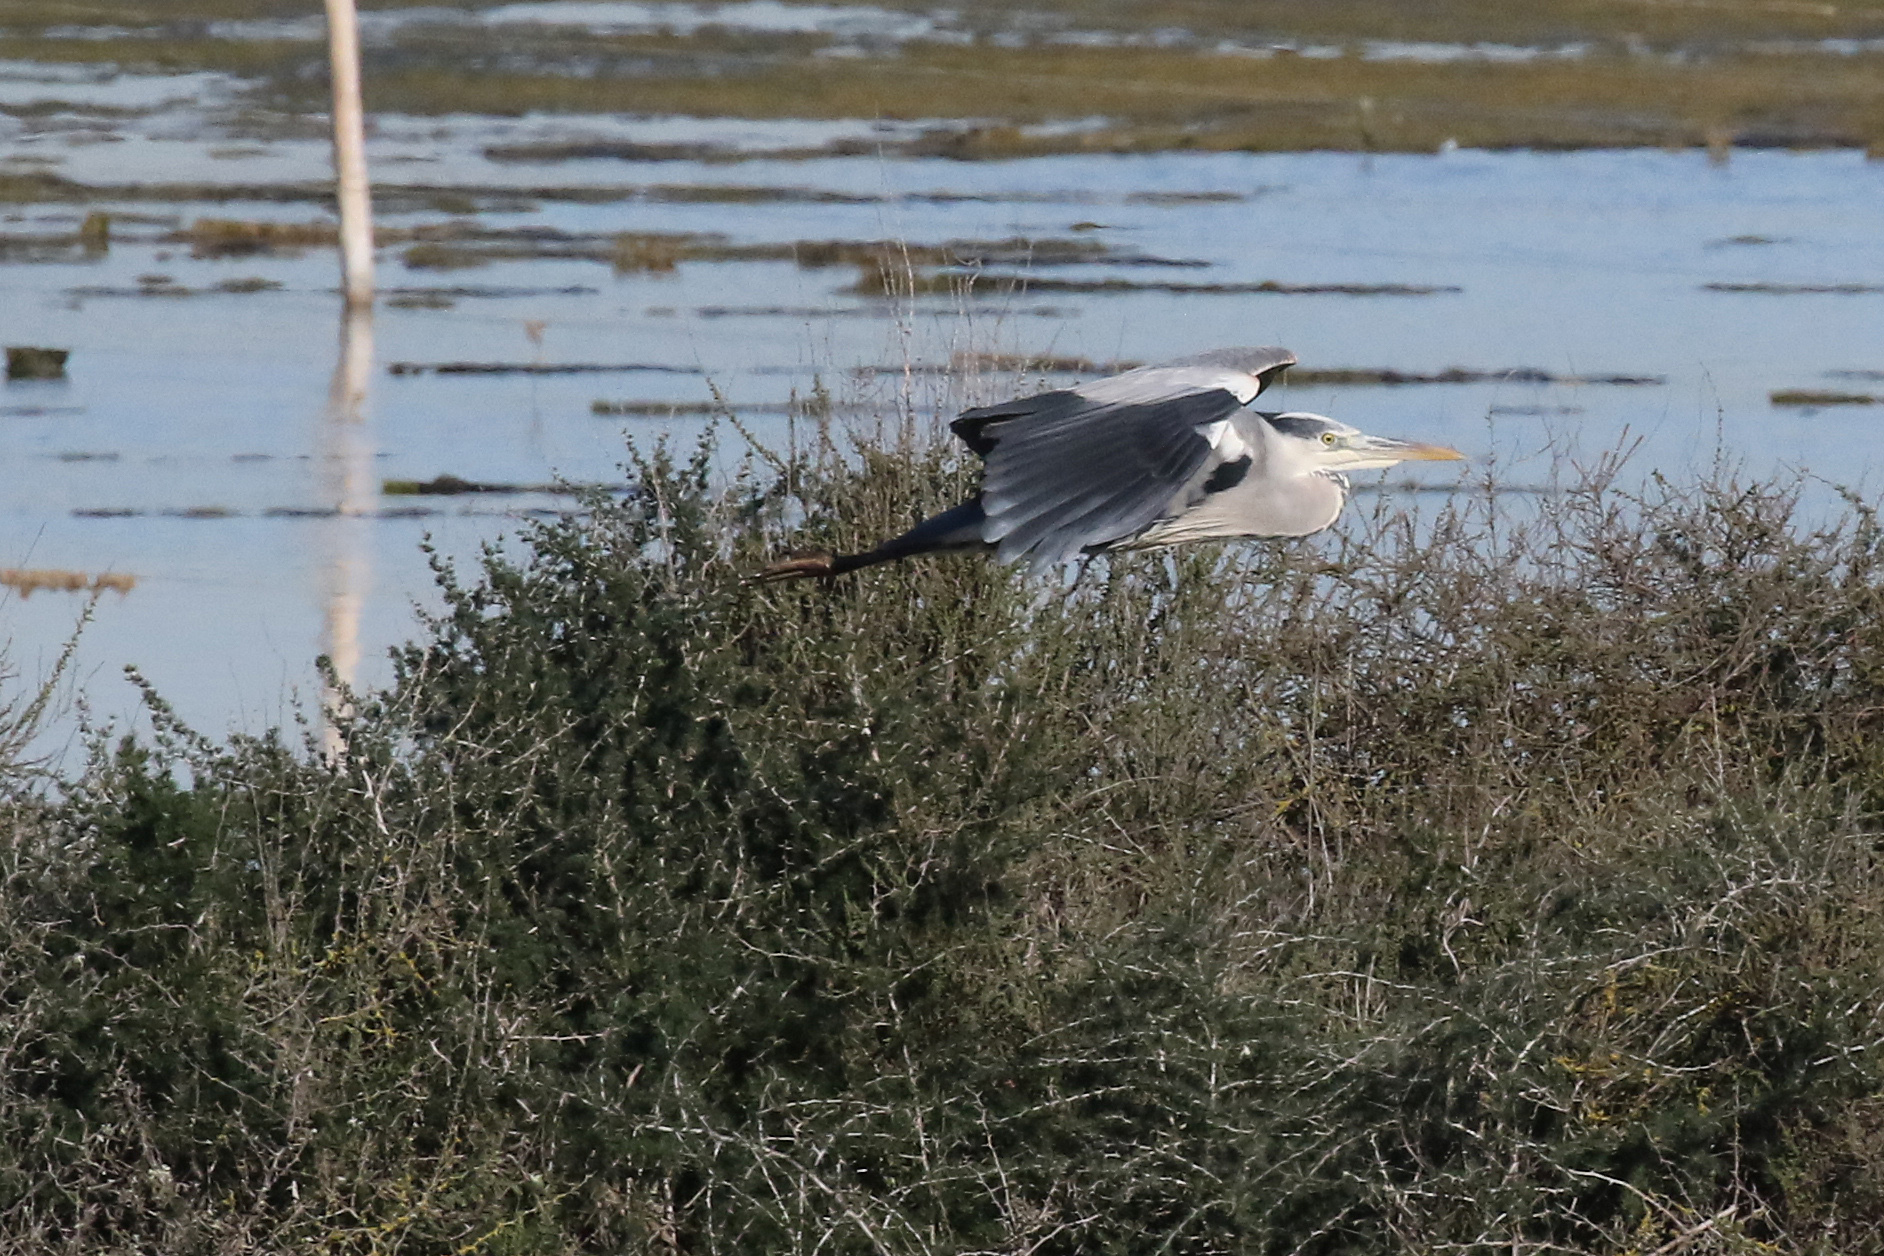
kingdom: Animalia
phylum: Chordata
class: Aves
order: Pelecaniformes
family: Ardeidae
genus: Ardea
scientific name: Ardea cinerea
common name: Grey heron
